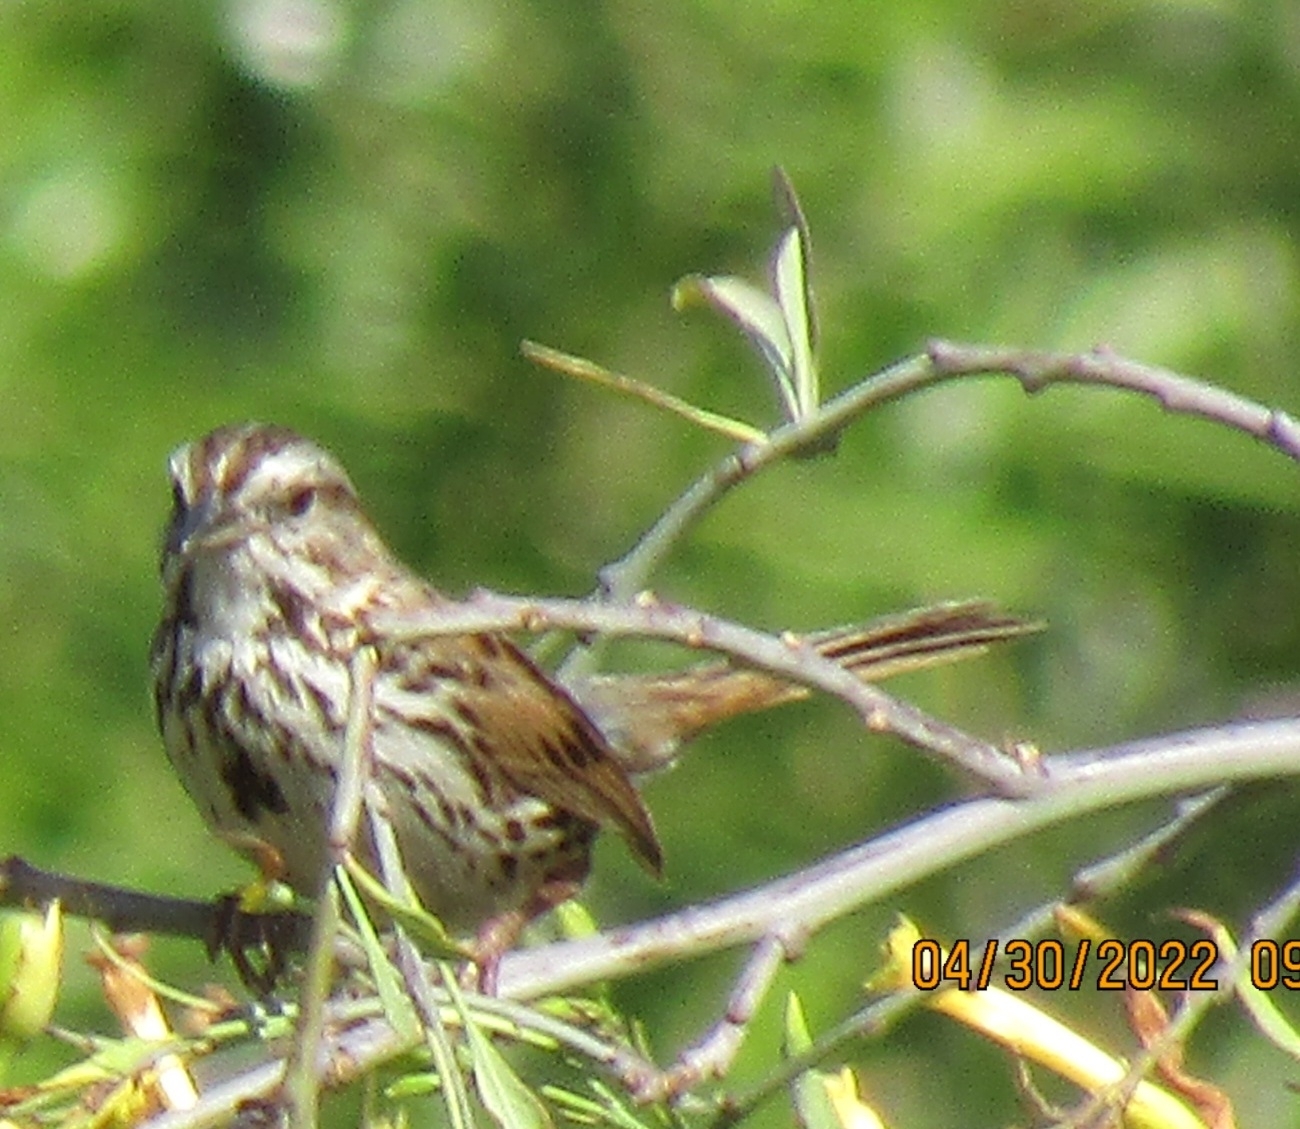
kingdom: Animalia
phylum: Chordata
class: Aves
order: Passeriformes
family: Passerellidae
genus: Melospiza
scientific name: Melospiza melodia
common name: Song sparrow
